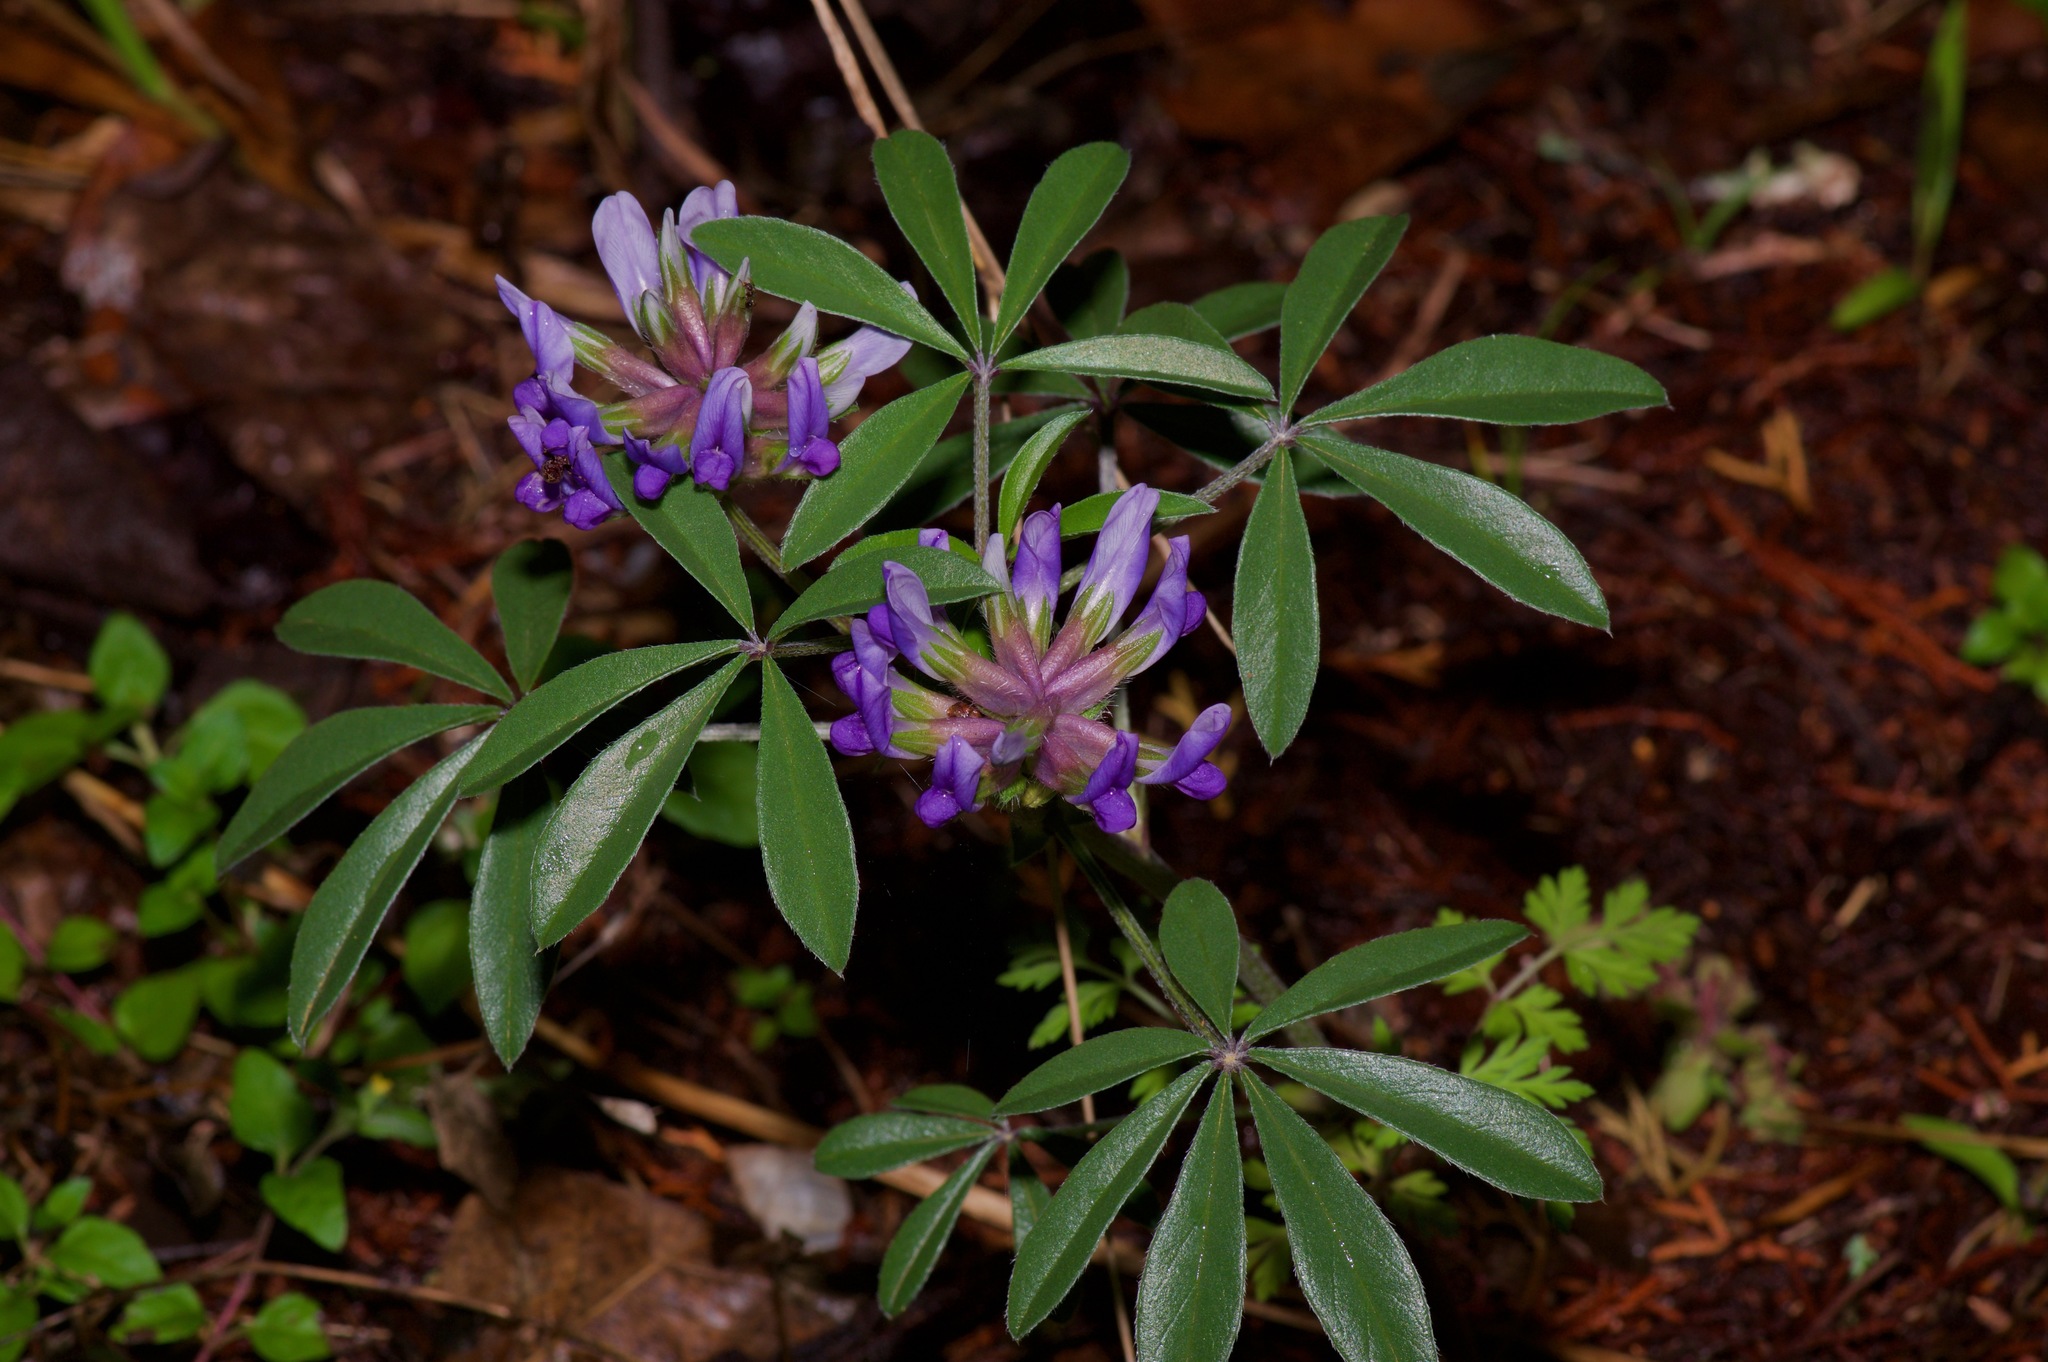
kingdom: Plantae
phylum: Tracheophyta
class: Magnoliopsida
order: Fabales
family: Fabaceae
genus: Pediomelum
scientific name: Pediomelum latestipulatum
